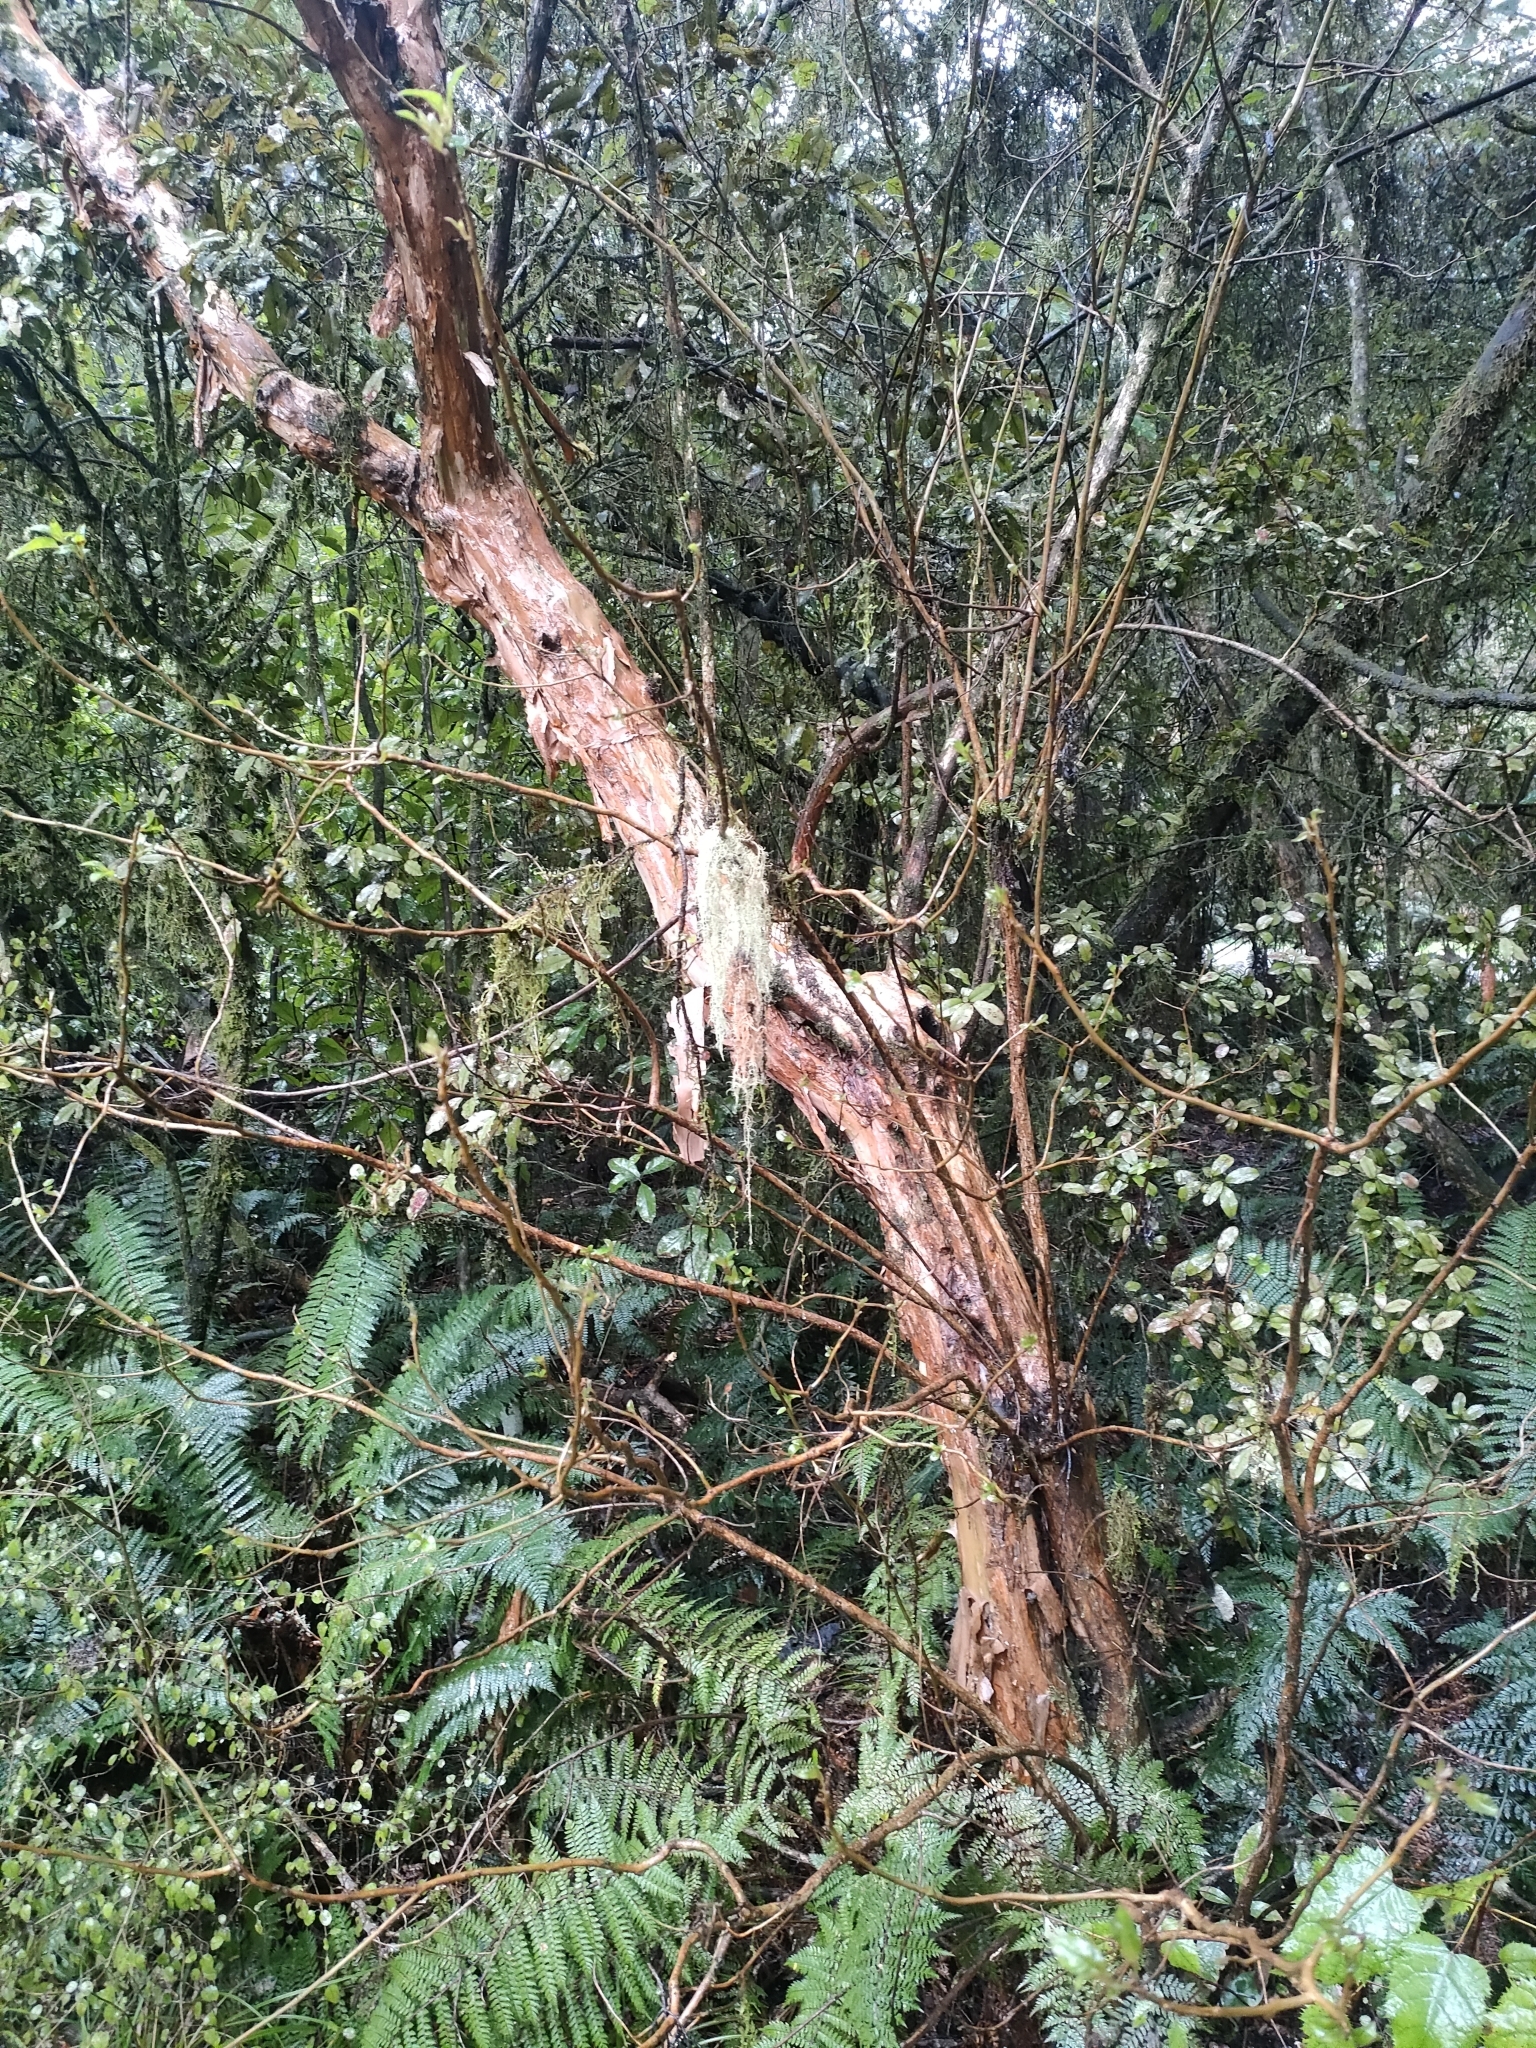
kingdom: Plantae
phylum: Tracheophyta
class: Magnoliopsida
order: Myrtales
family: Onagraceae
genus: Fuchsia
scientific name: Fuchsia excorticata
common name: Tree fuchsia
